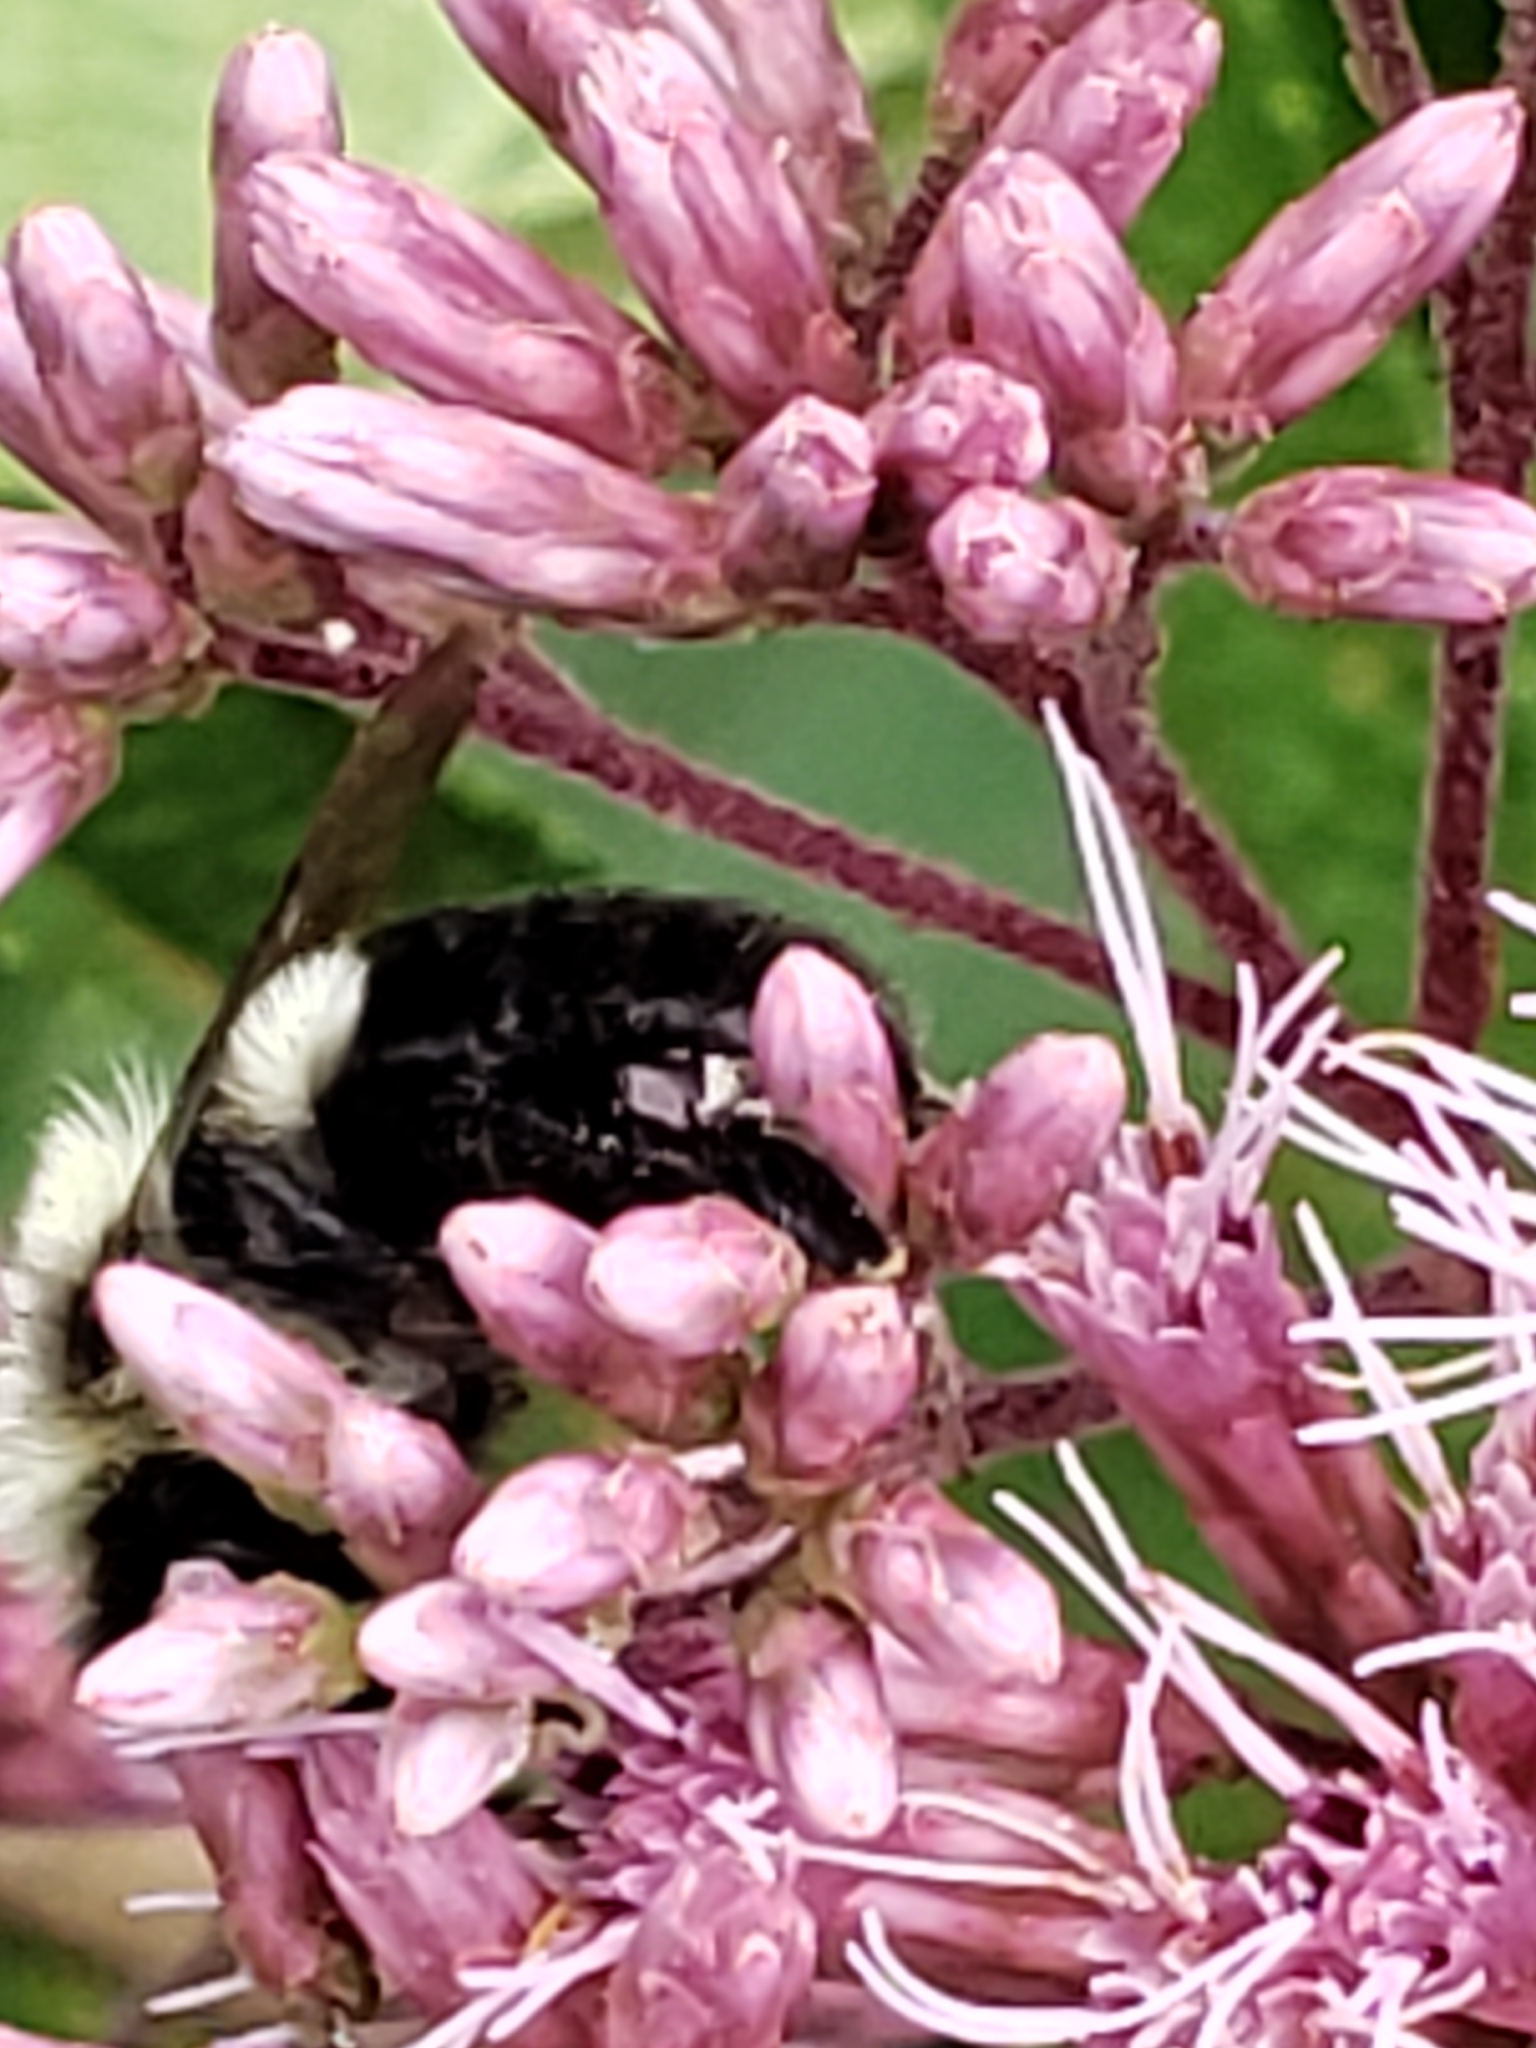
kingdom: Animalia
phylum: Arthropoda
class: Insecta
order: Hymenoptera
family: Apidae
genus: Bombus
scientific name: Bombus impatiens
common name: Common eastern bumble bee
